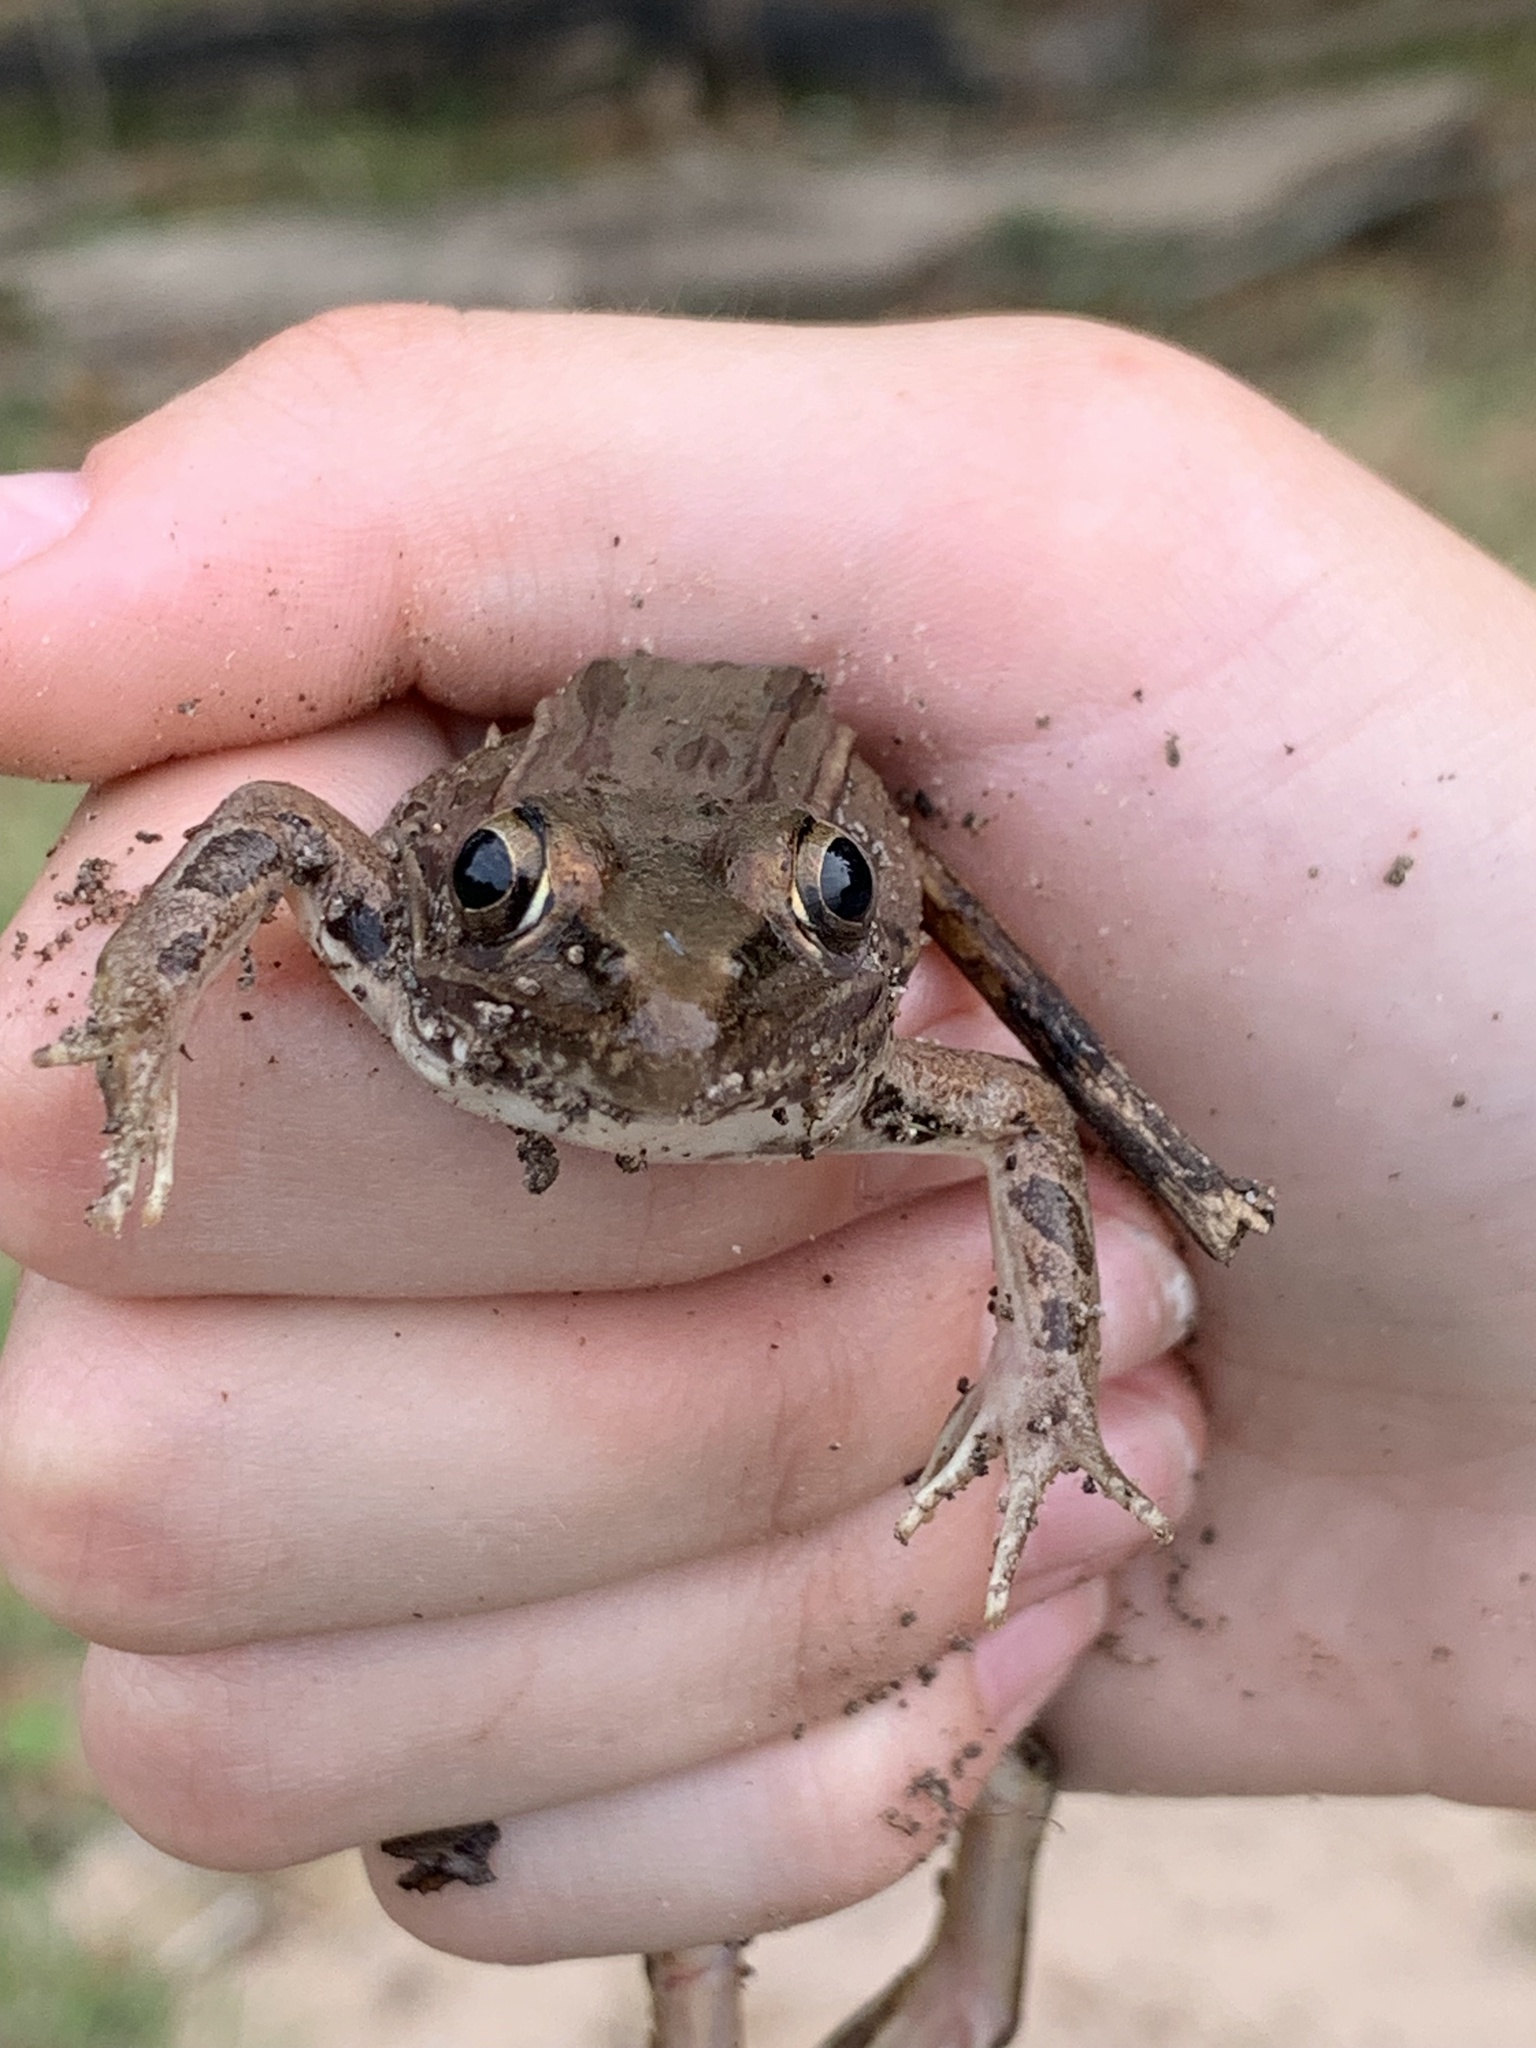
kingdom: Animalia
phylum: Chordata
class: Amphibia
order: Anura
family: Ranidae
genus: Lithobates
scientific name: Lithobates sphenocephalus
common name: Southern leopard frog
